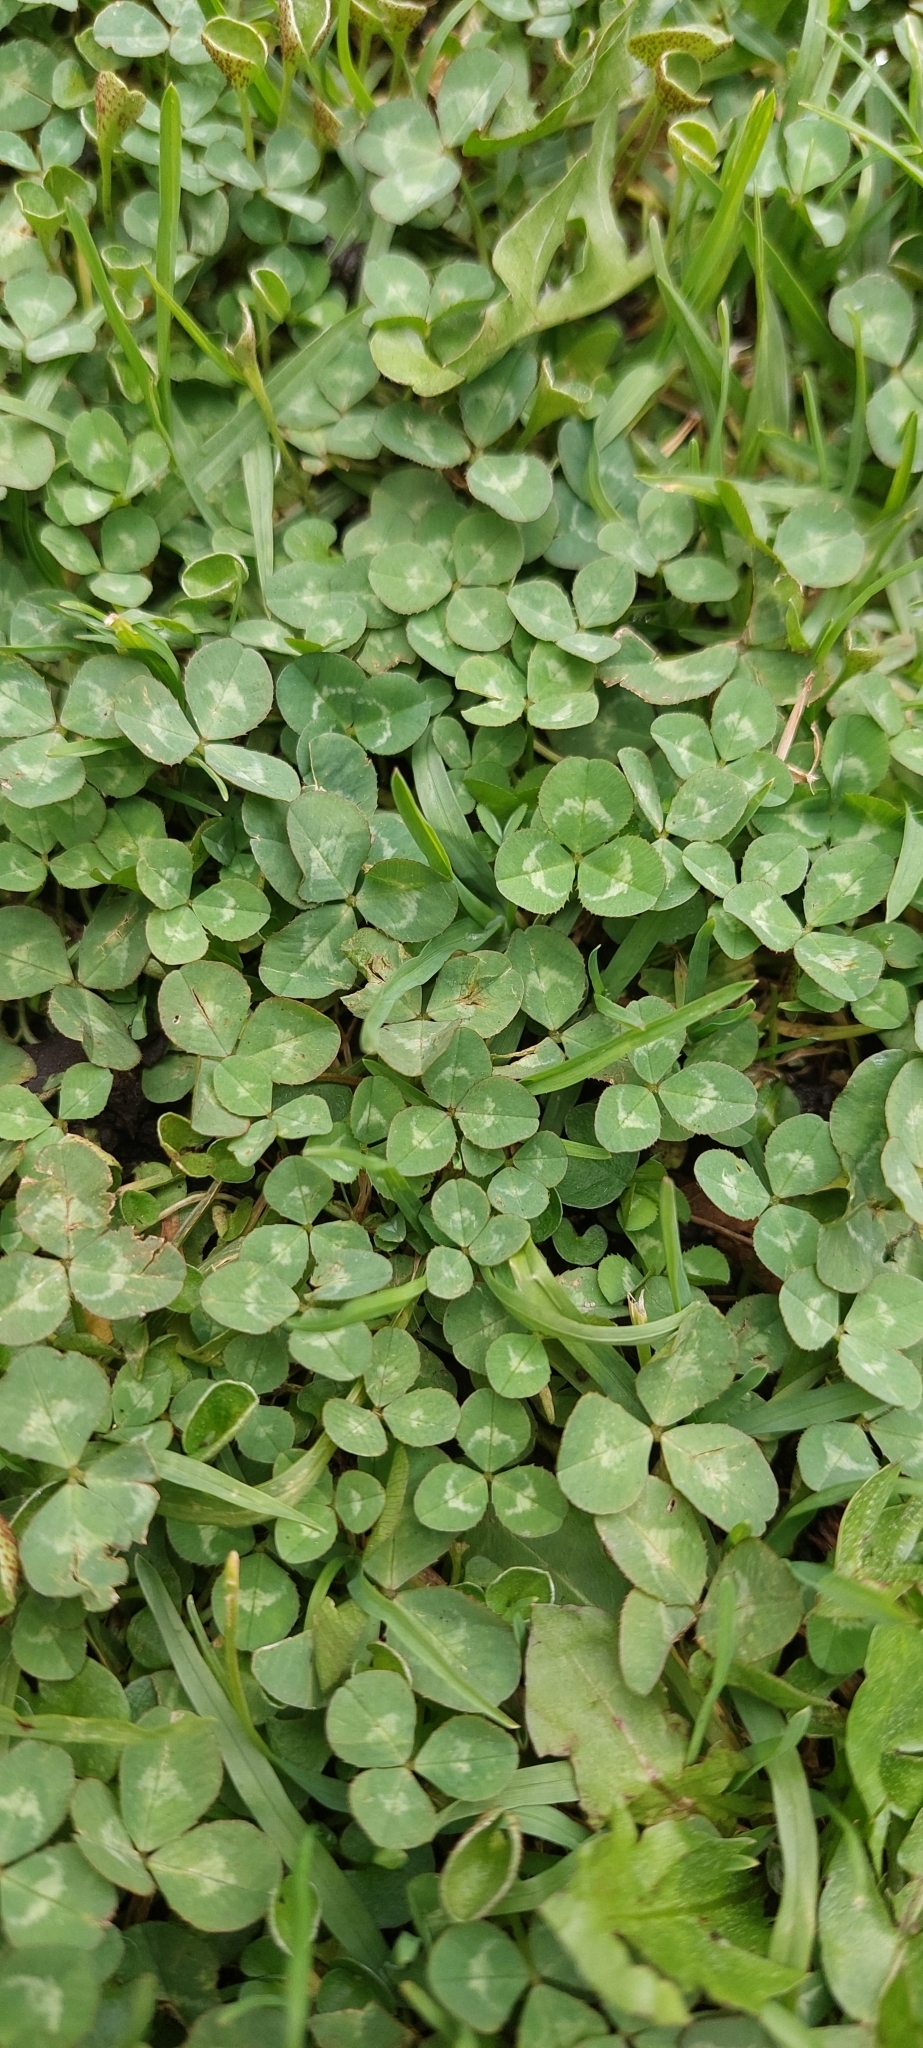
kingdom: Plantae
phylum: Tracheophyta
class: Magnoliopsida
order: Fabales
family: Fabaceae
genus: Trifolium
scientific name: Trifolium repens
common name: White clover
